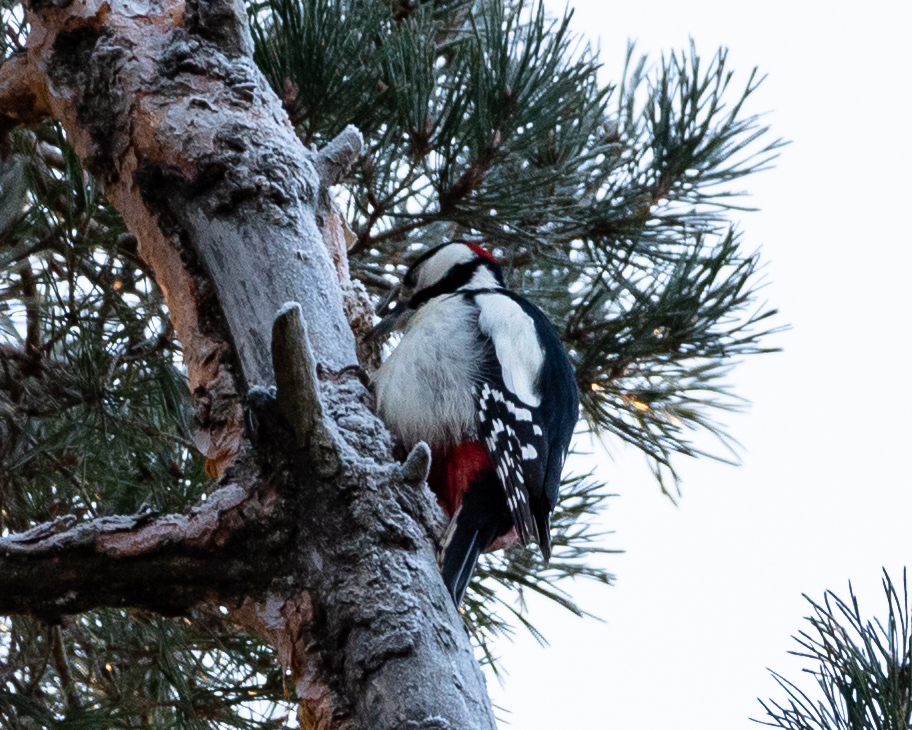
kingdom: Animalia
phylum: Chordata
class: Aves
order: Piciformes
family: Picidae
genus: Dendrocopos
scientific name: Dendrocopos major
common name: Great spotted woodpecker
